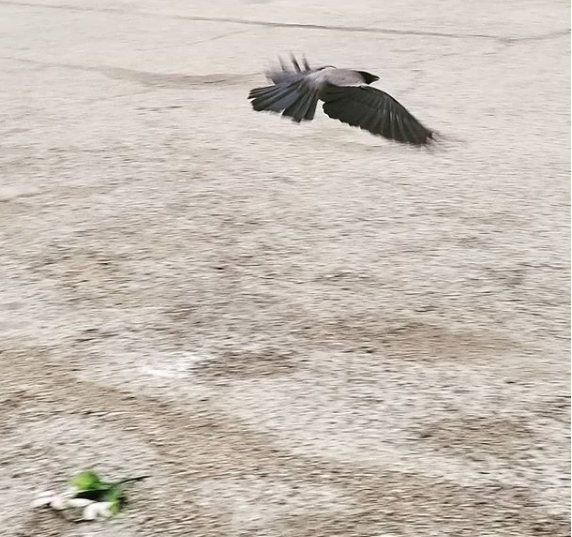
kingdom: Animalia
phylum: Chordata
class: Aves
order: Passeriformes
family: Corvidae
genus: Corvus
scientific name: Corvus cornix
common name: Hooded crow
